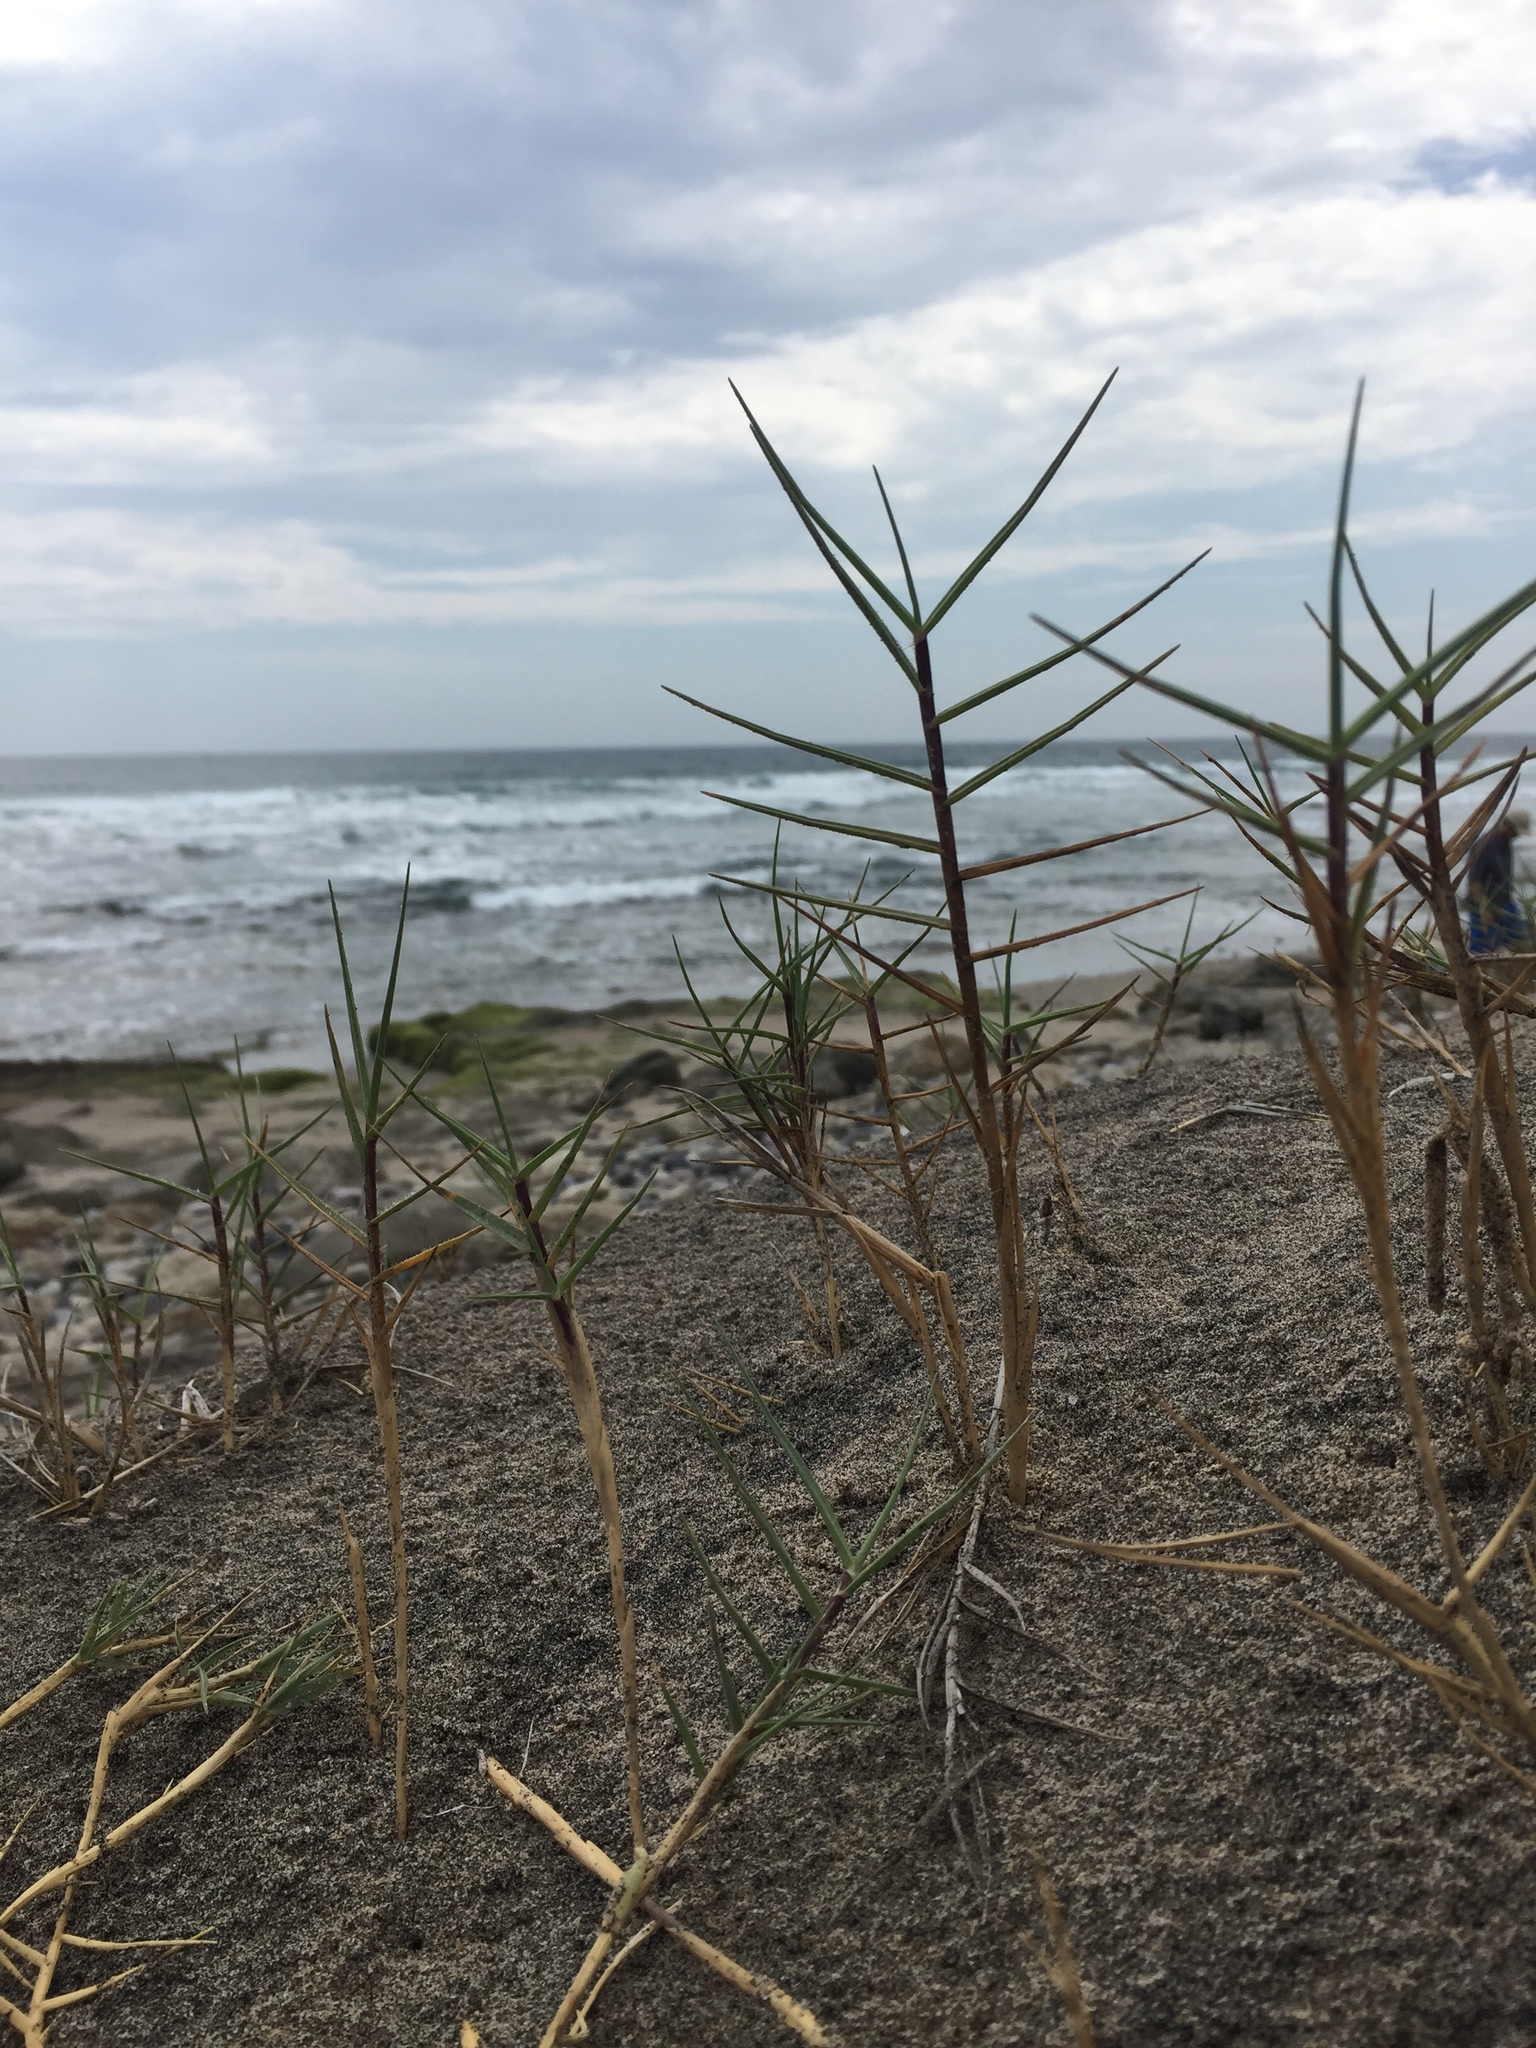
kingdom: Plantae
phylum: Tracheophyta
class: Liliopsida
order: Poales
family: Poaceae
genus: Distichlis
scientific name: Distichlis spicata
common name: Saltgrass
